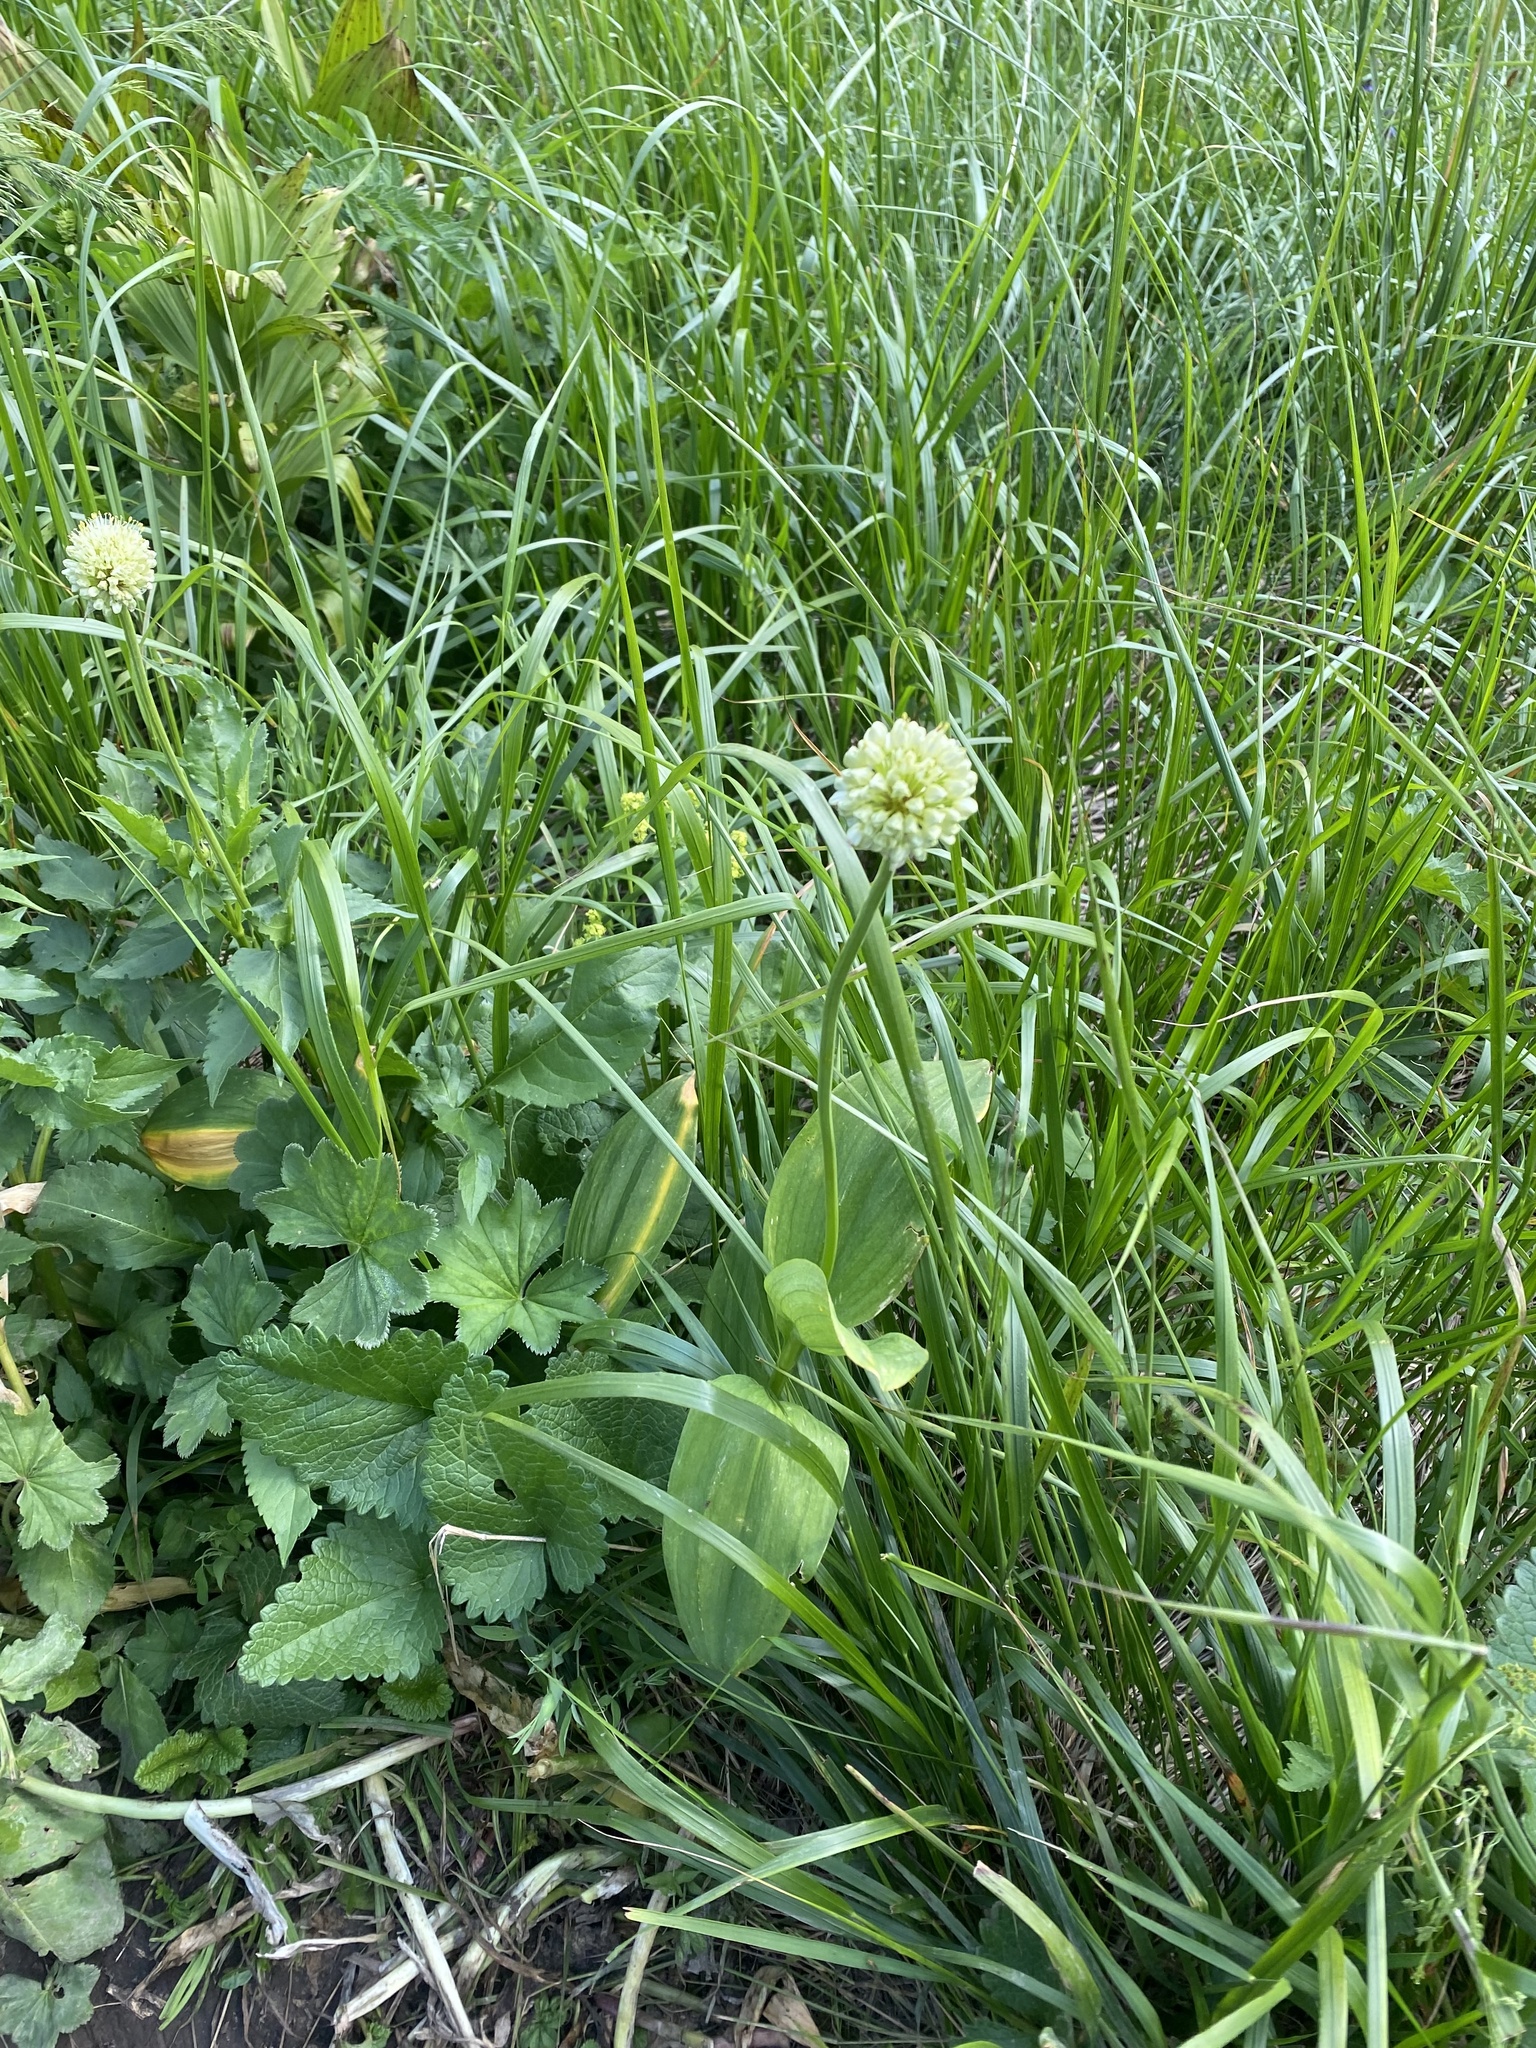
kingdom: Plantae
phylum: Tracheophyta
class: Liliopsida
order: Asparagales
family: Amaryllidaceae
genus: Allium
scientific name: Allium victorialis
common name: Alpine leek
